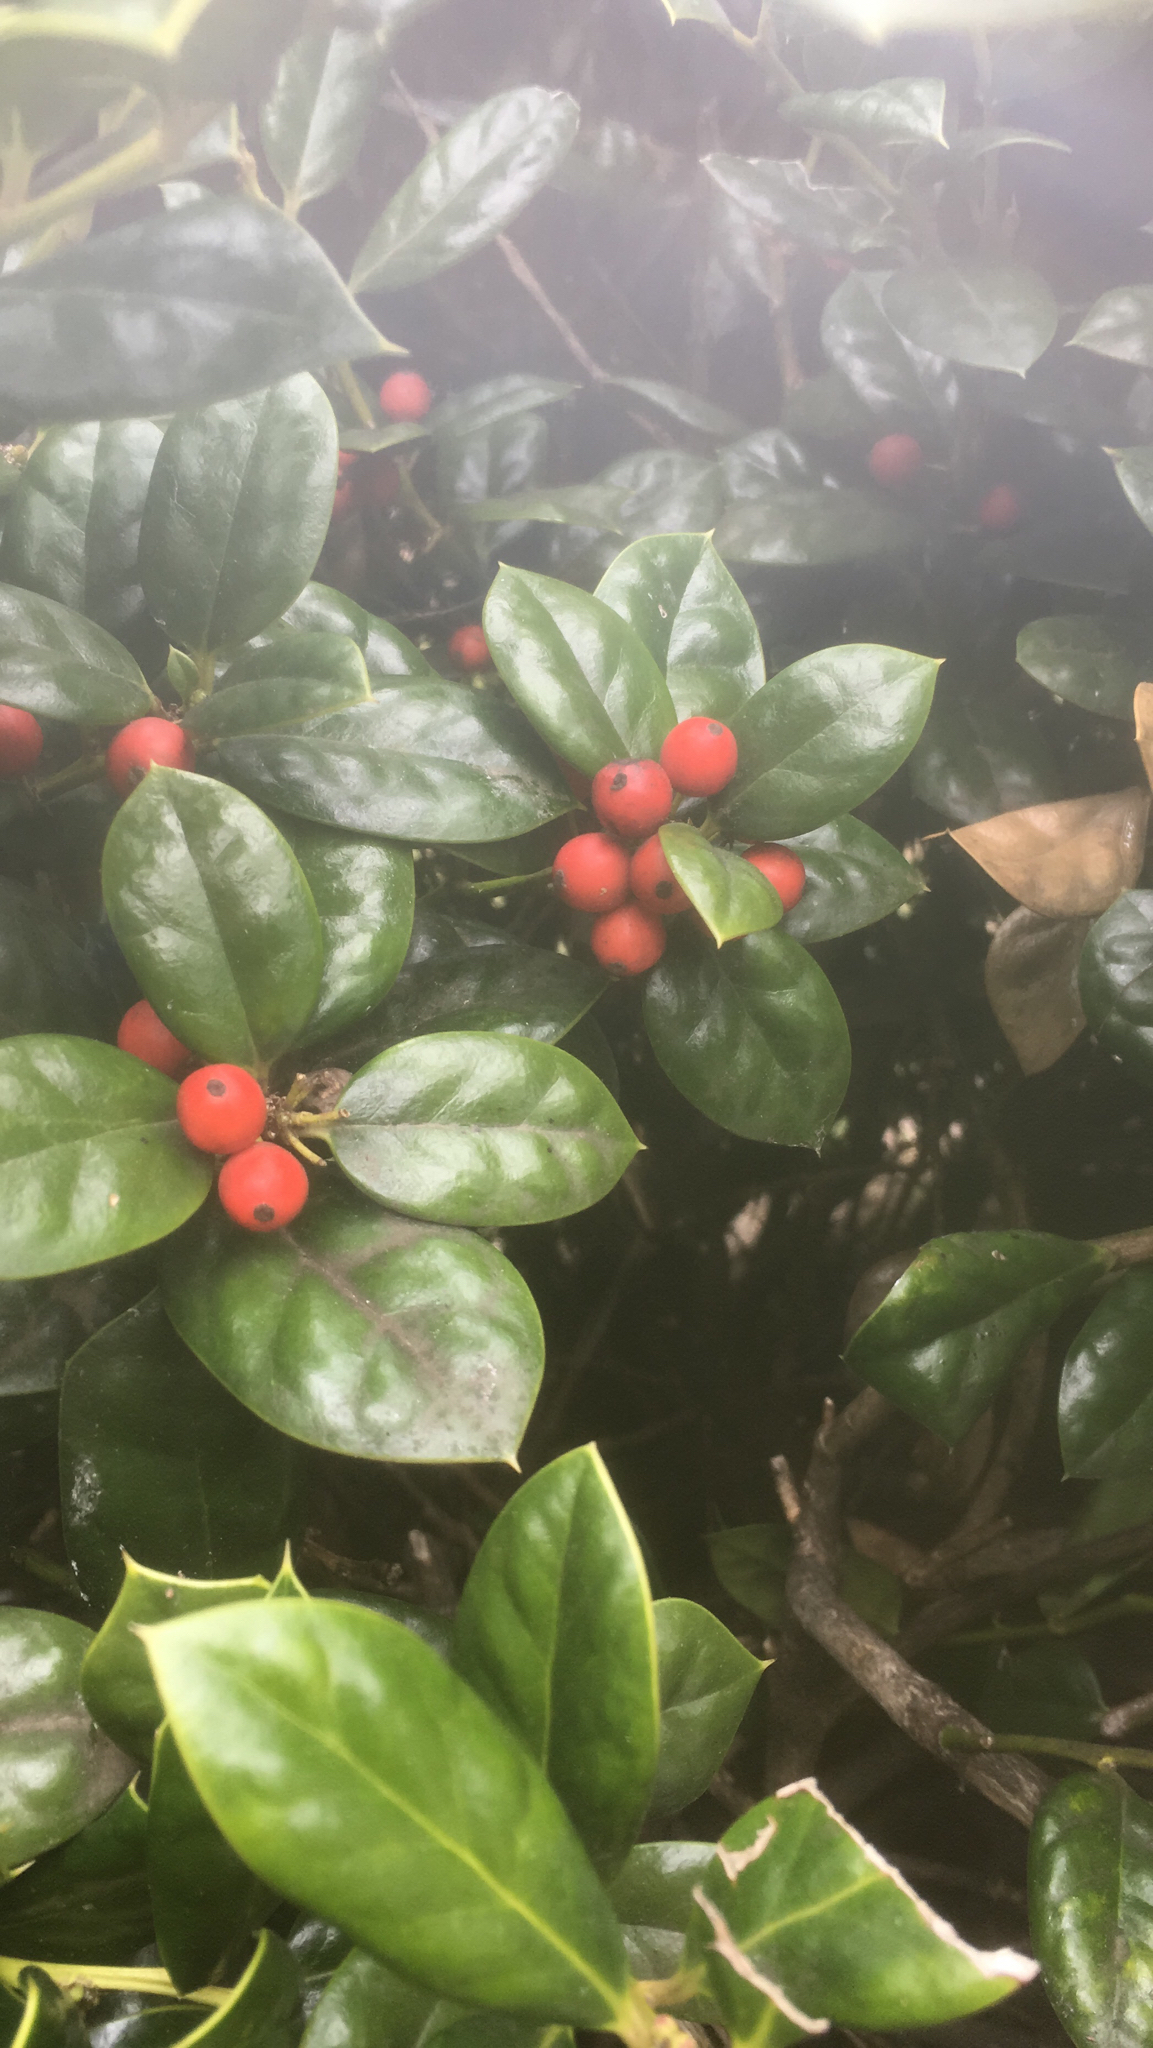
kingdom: Plantae
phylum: Tracheophyta
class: Magnoliopsida
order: Aquifoliales
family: Aquifoliaceae
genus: Ilex
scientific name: Ilex cornuta
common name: Chinese holly
